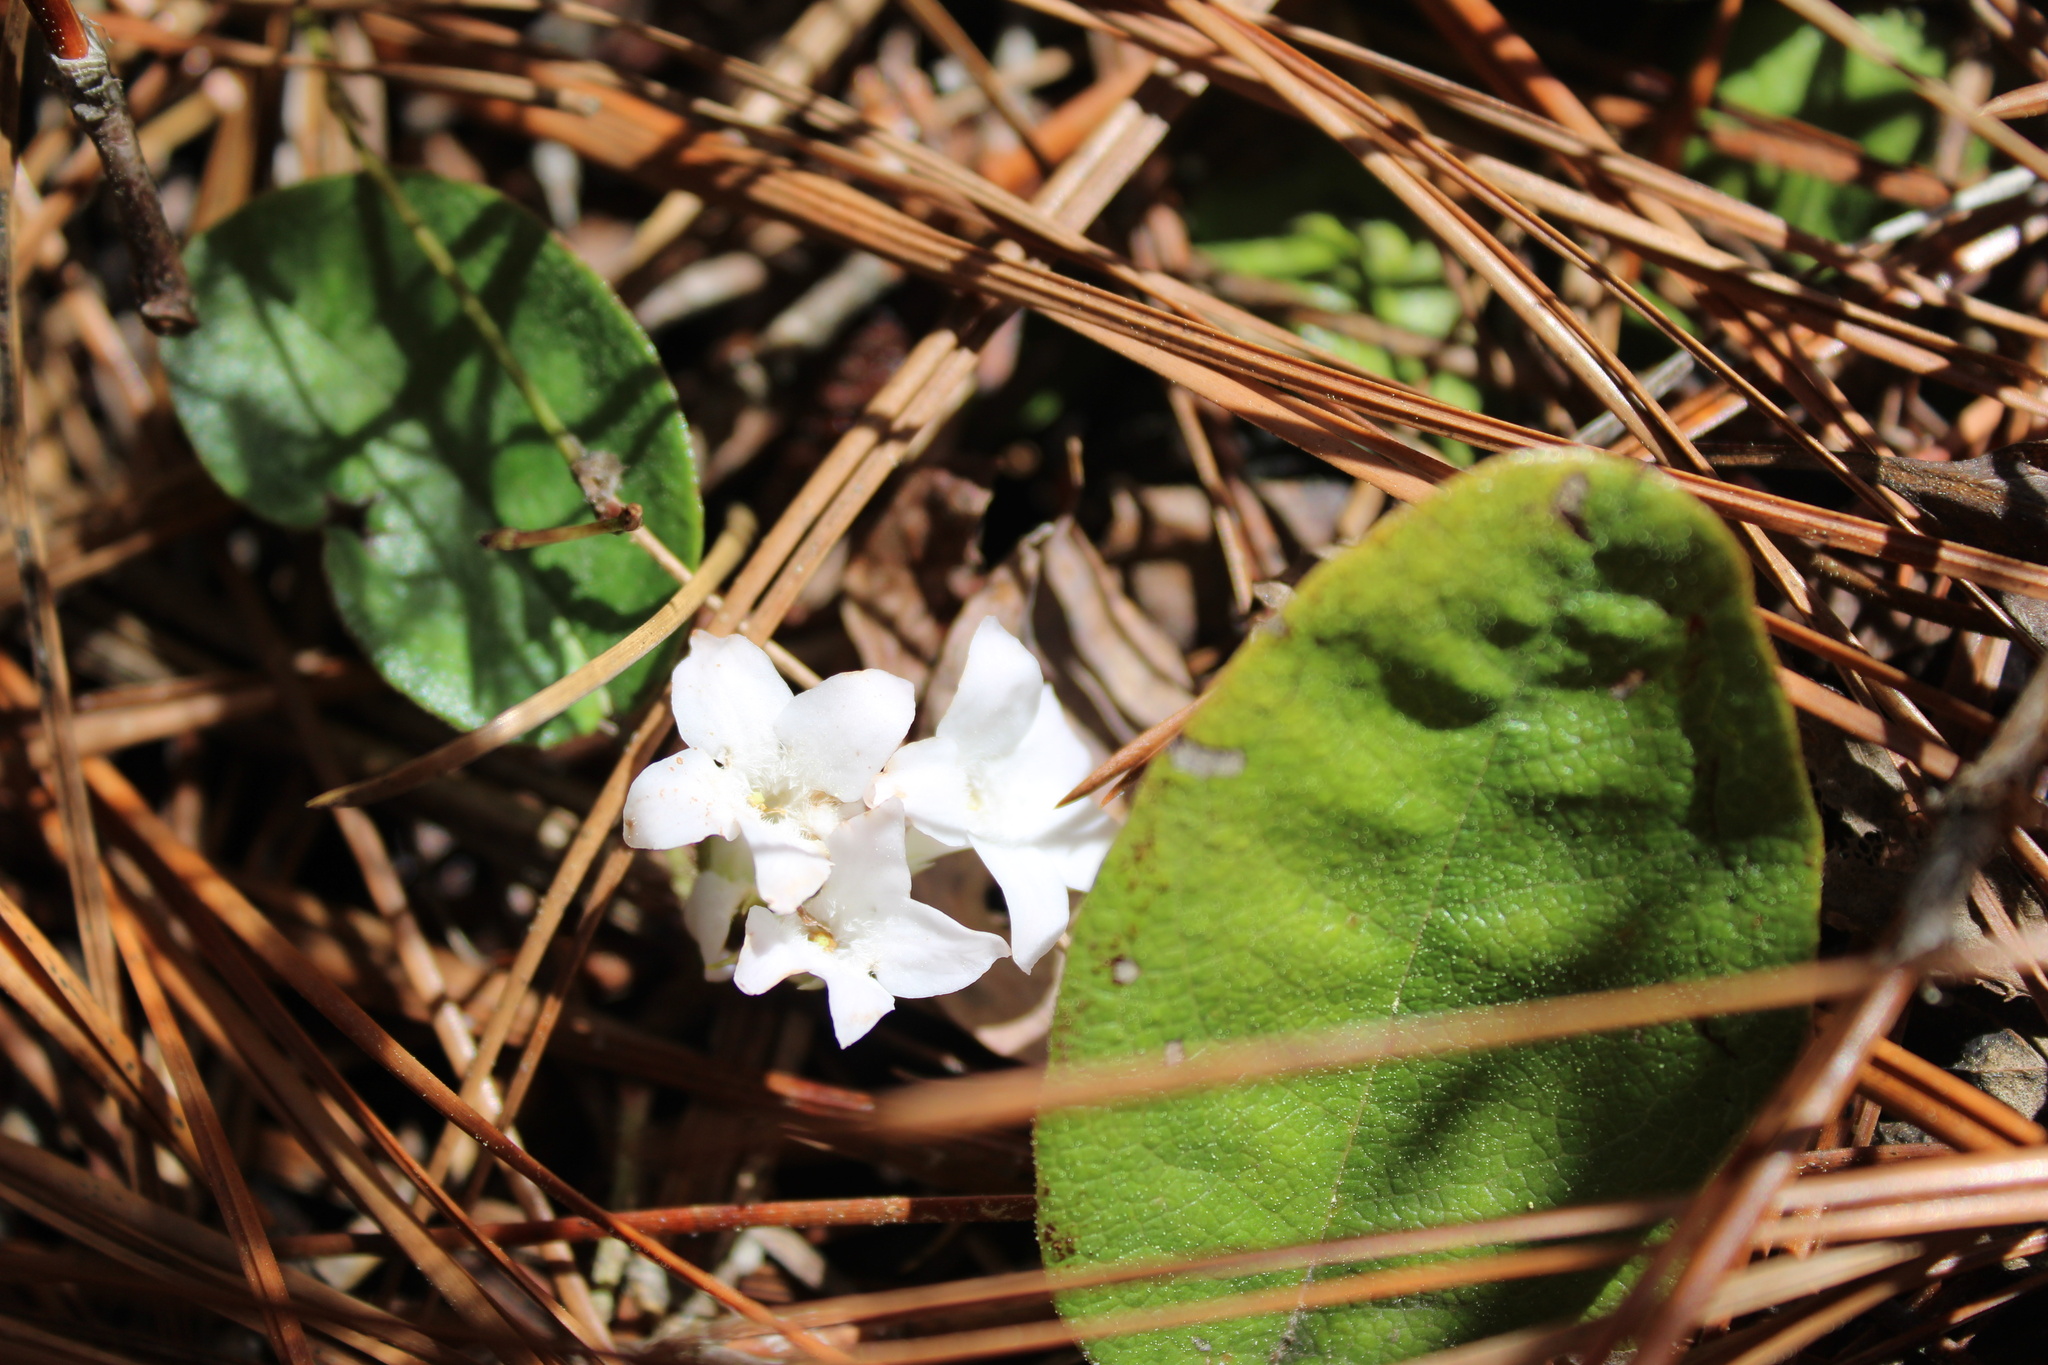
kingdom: Plantae
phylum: Tracheophyta
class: Magnoliopsida
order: Ericales
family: Ericaceae
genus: Epigaea
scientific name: Epigaea repens
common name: Gravelroot
